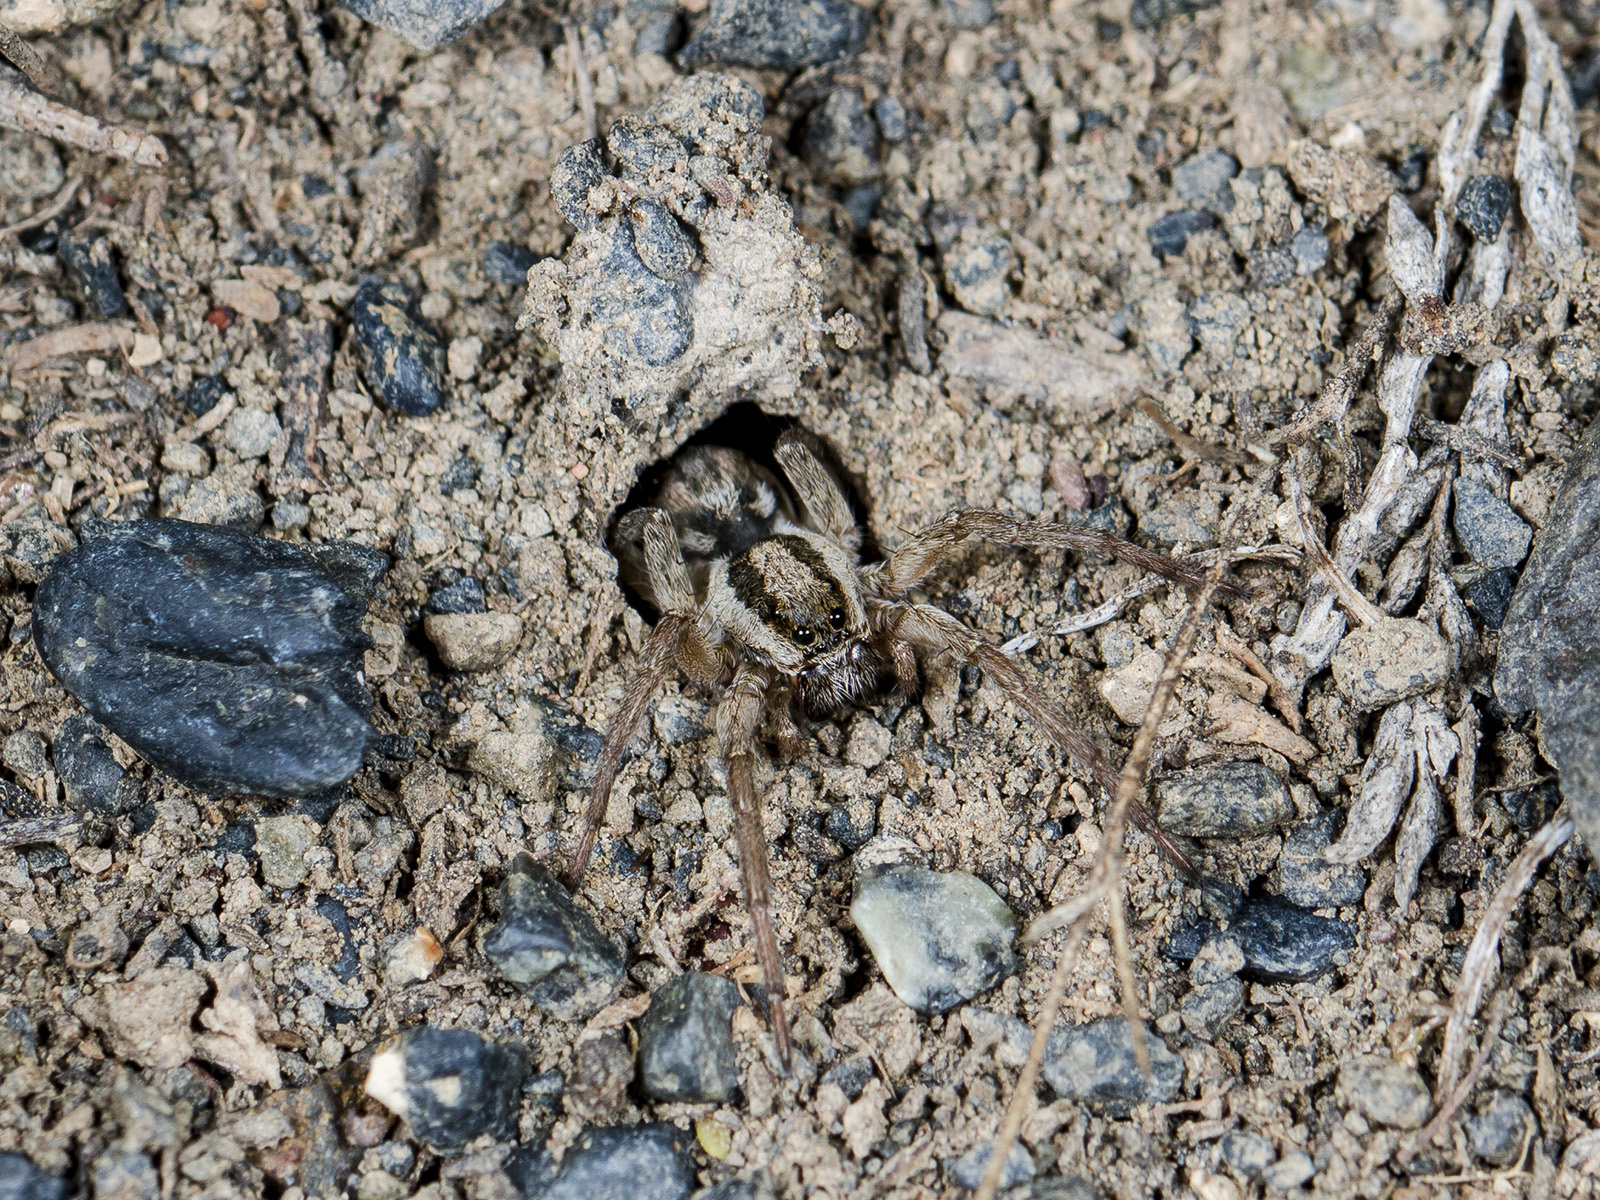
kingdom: Animalia
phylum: Arthropoda
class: Arachnida
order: Araneae
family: Lycosidae
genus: Lycosa
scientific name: Lycosa praegrandis
